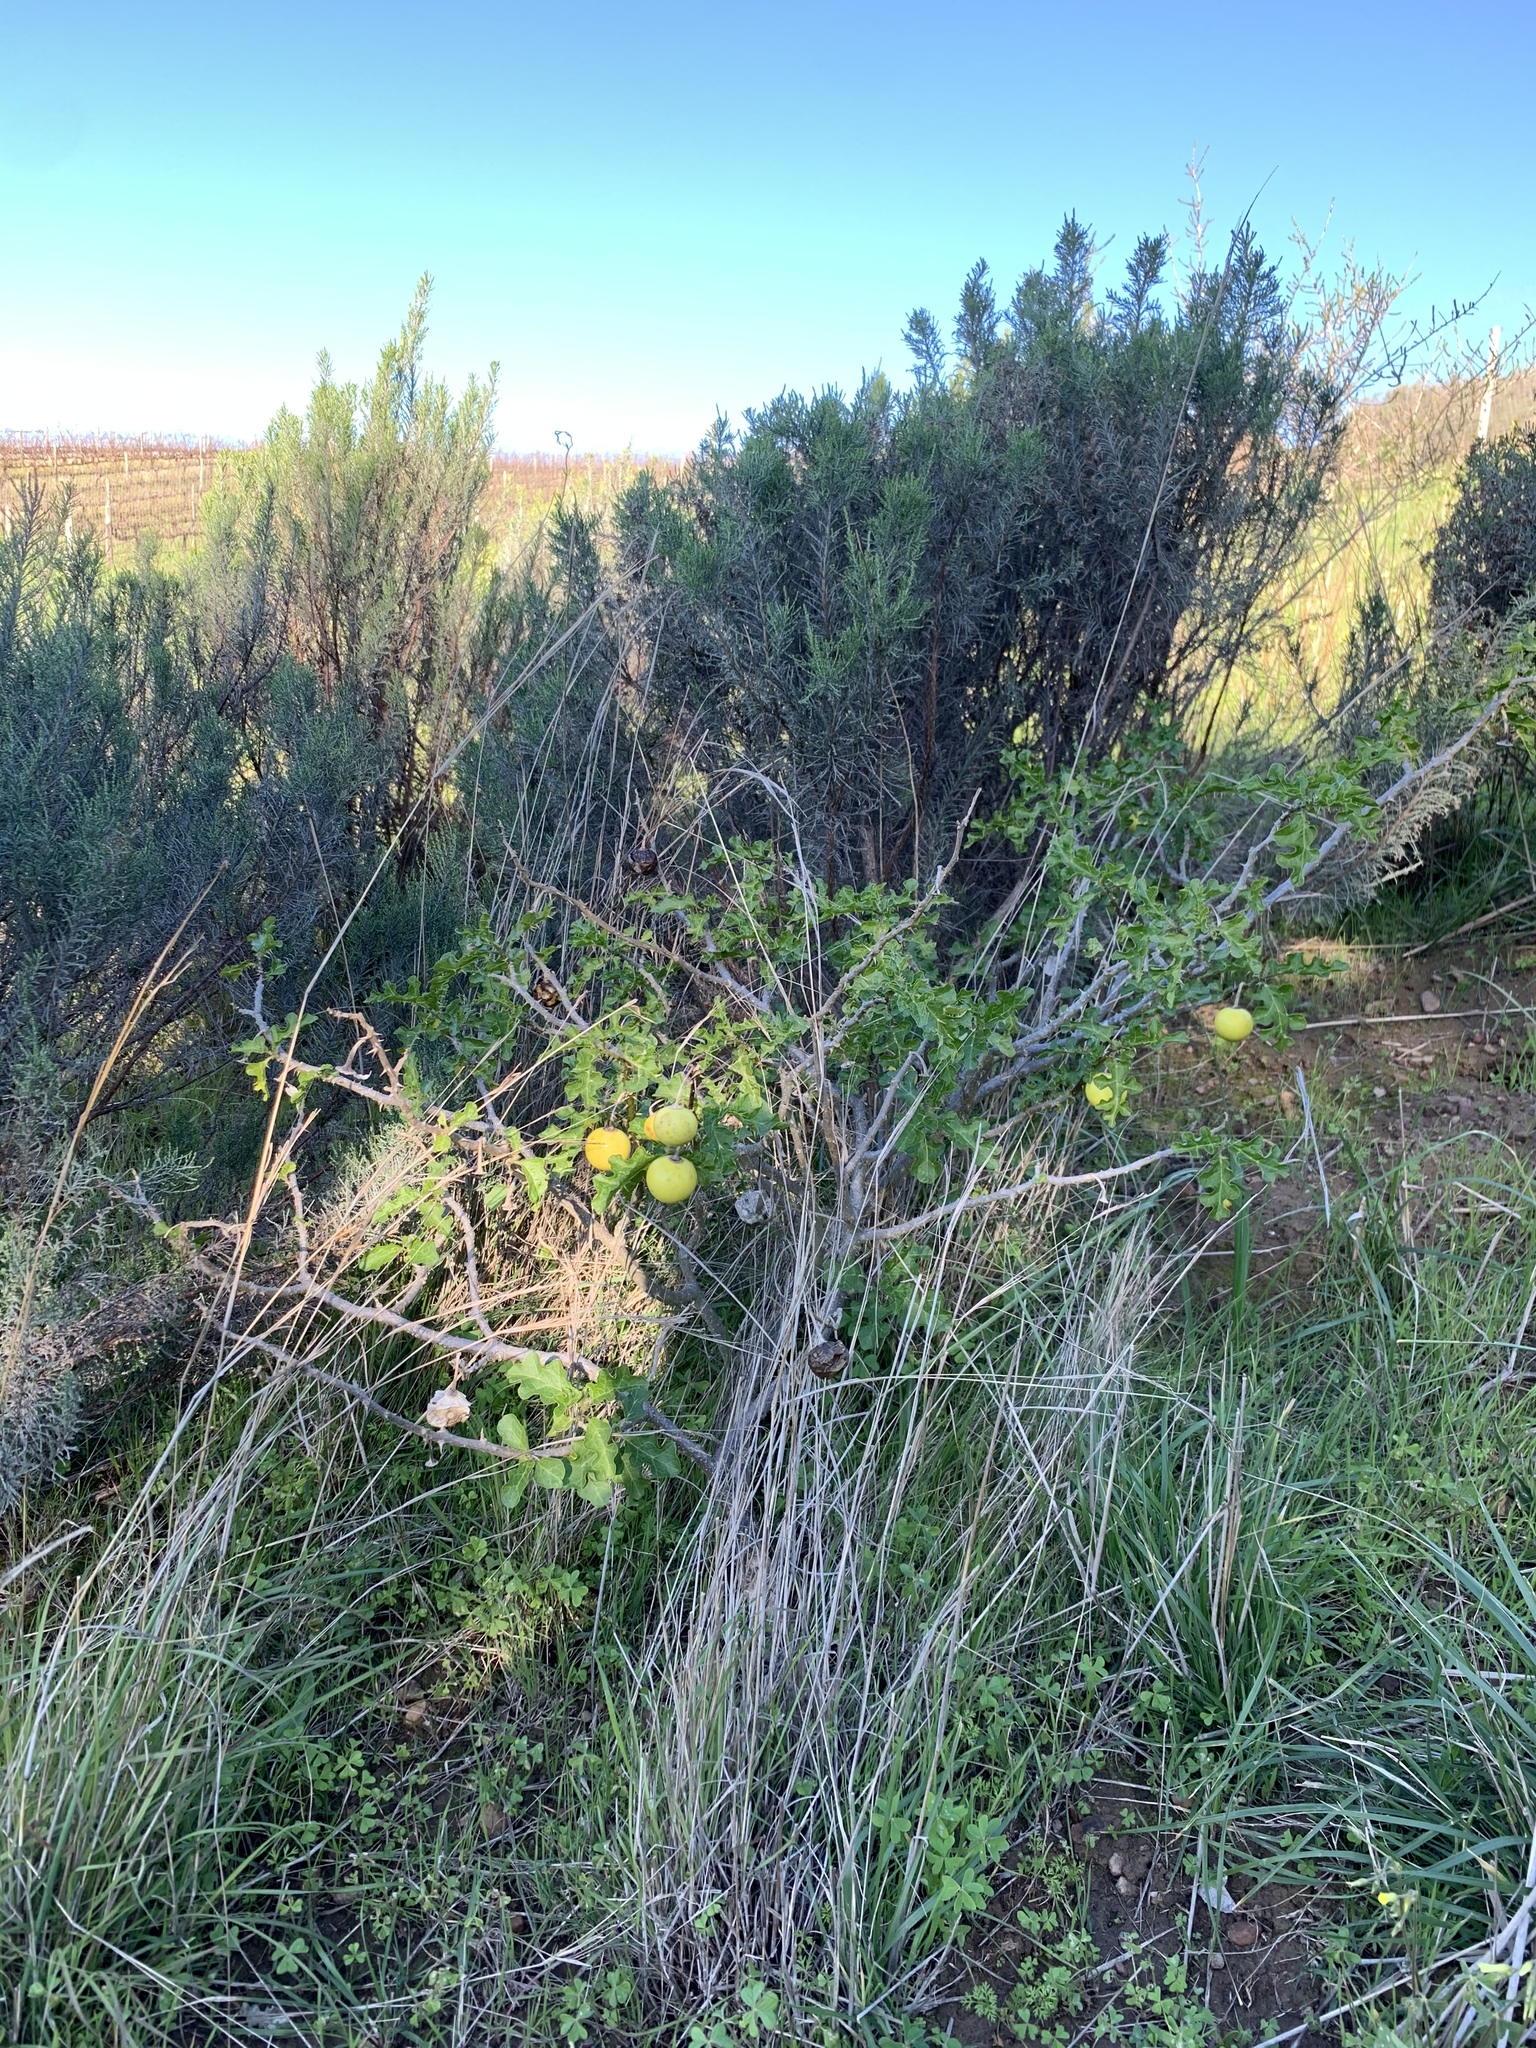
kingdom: Plantae
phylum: Tracheophyta
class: Magnoliopsida
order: Solanales
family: Solanaceae
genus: Solanum
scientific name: Solanum linnaeanum
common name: Nightshade
